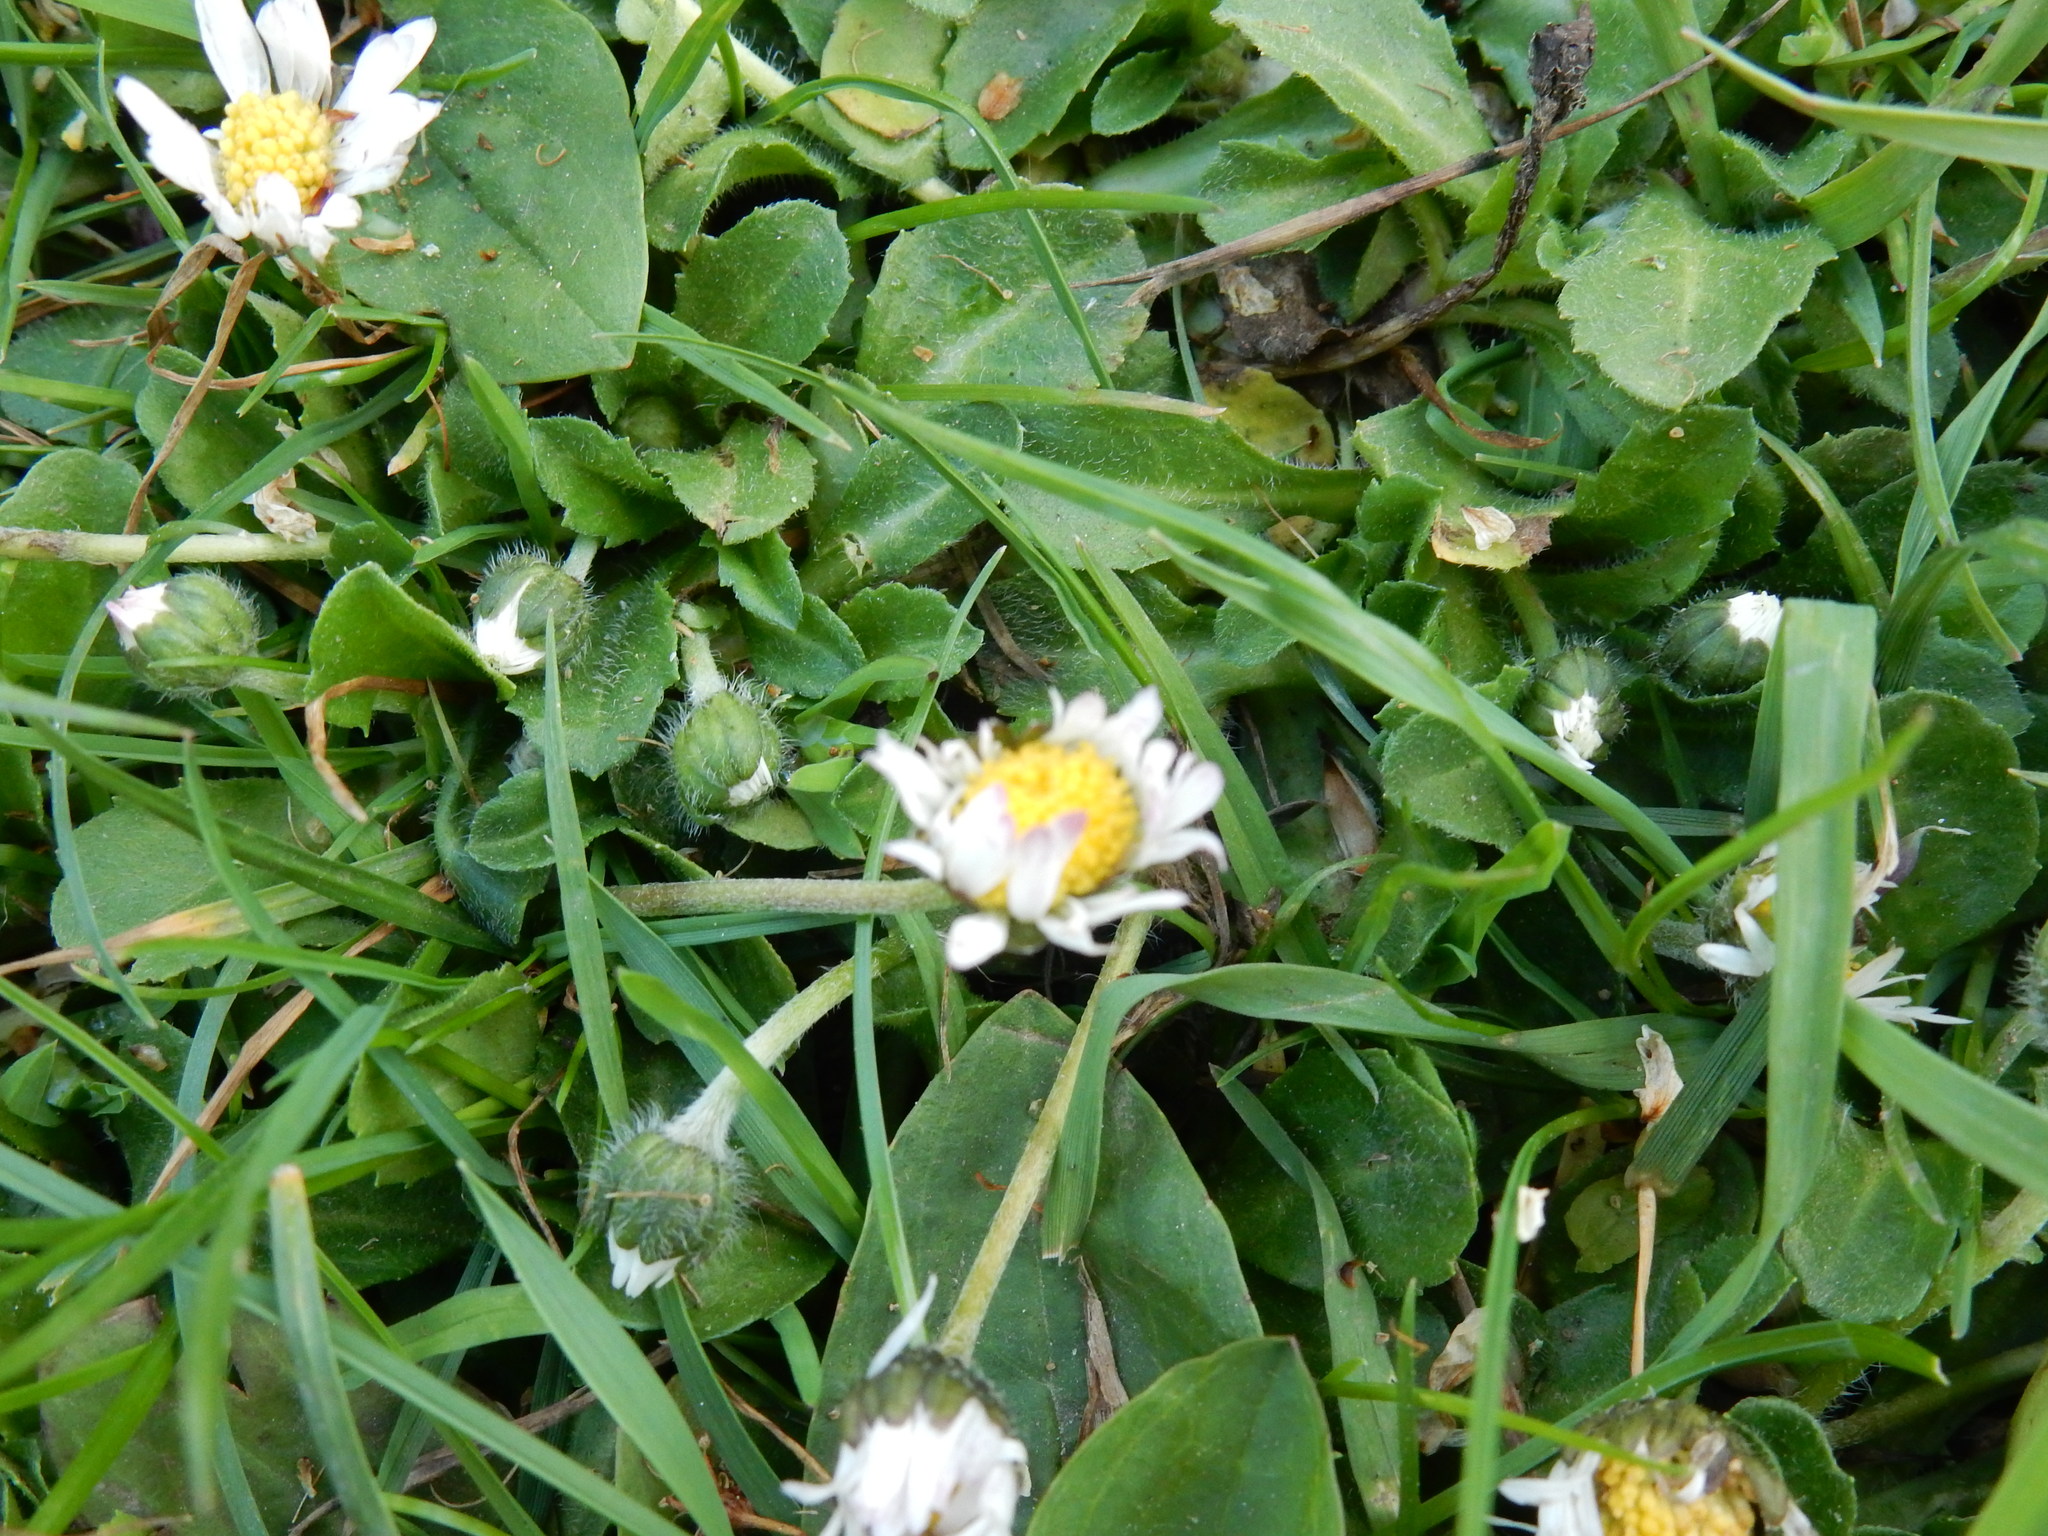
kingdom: Plantae
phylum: Tracheophyta
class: Magnoliopsida
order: Asterales
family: Asteraceae
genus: Bellis
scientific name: Bellis perennis
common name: Lawndaisy
